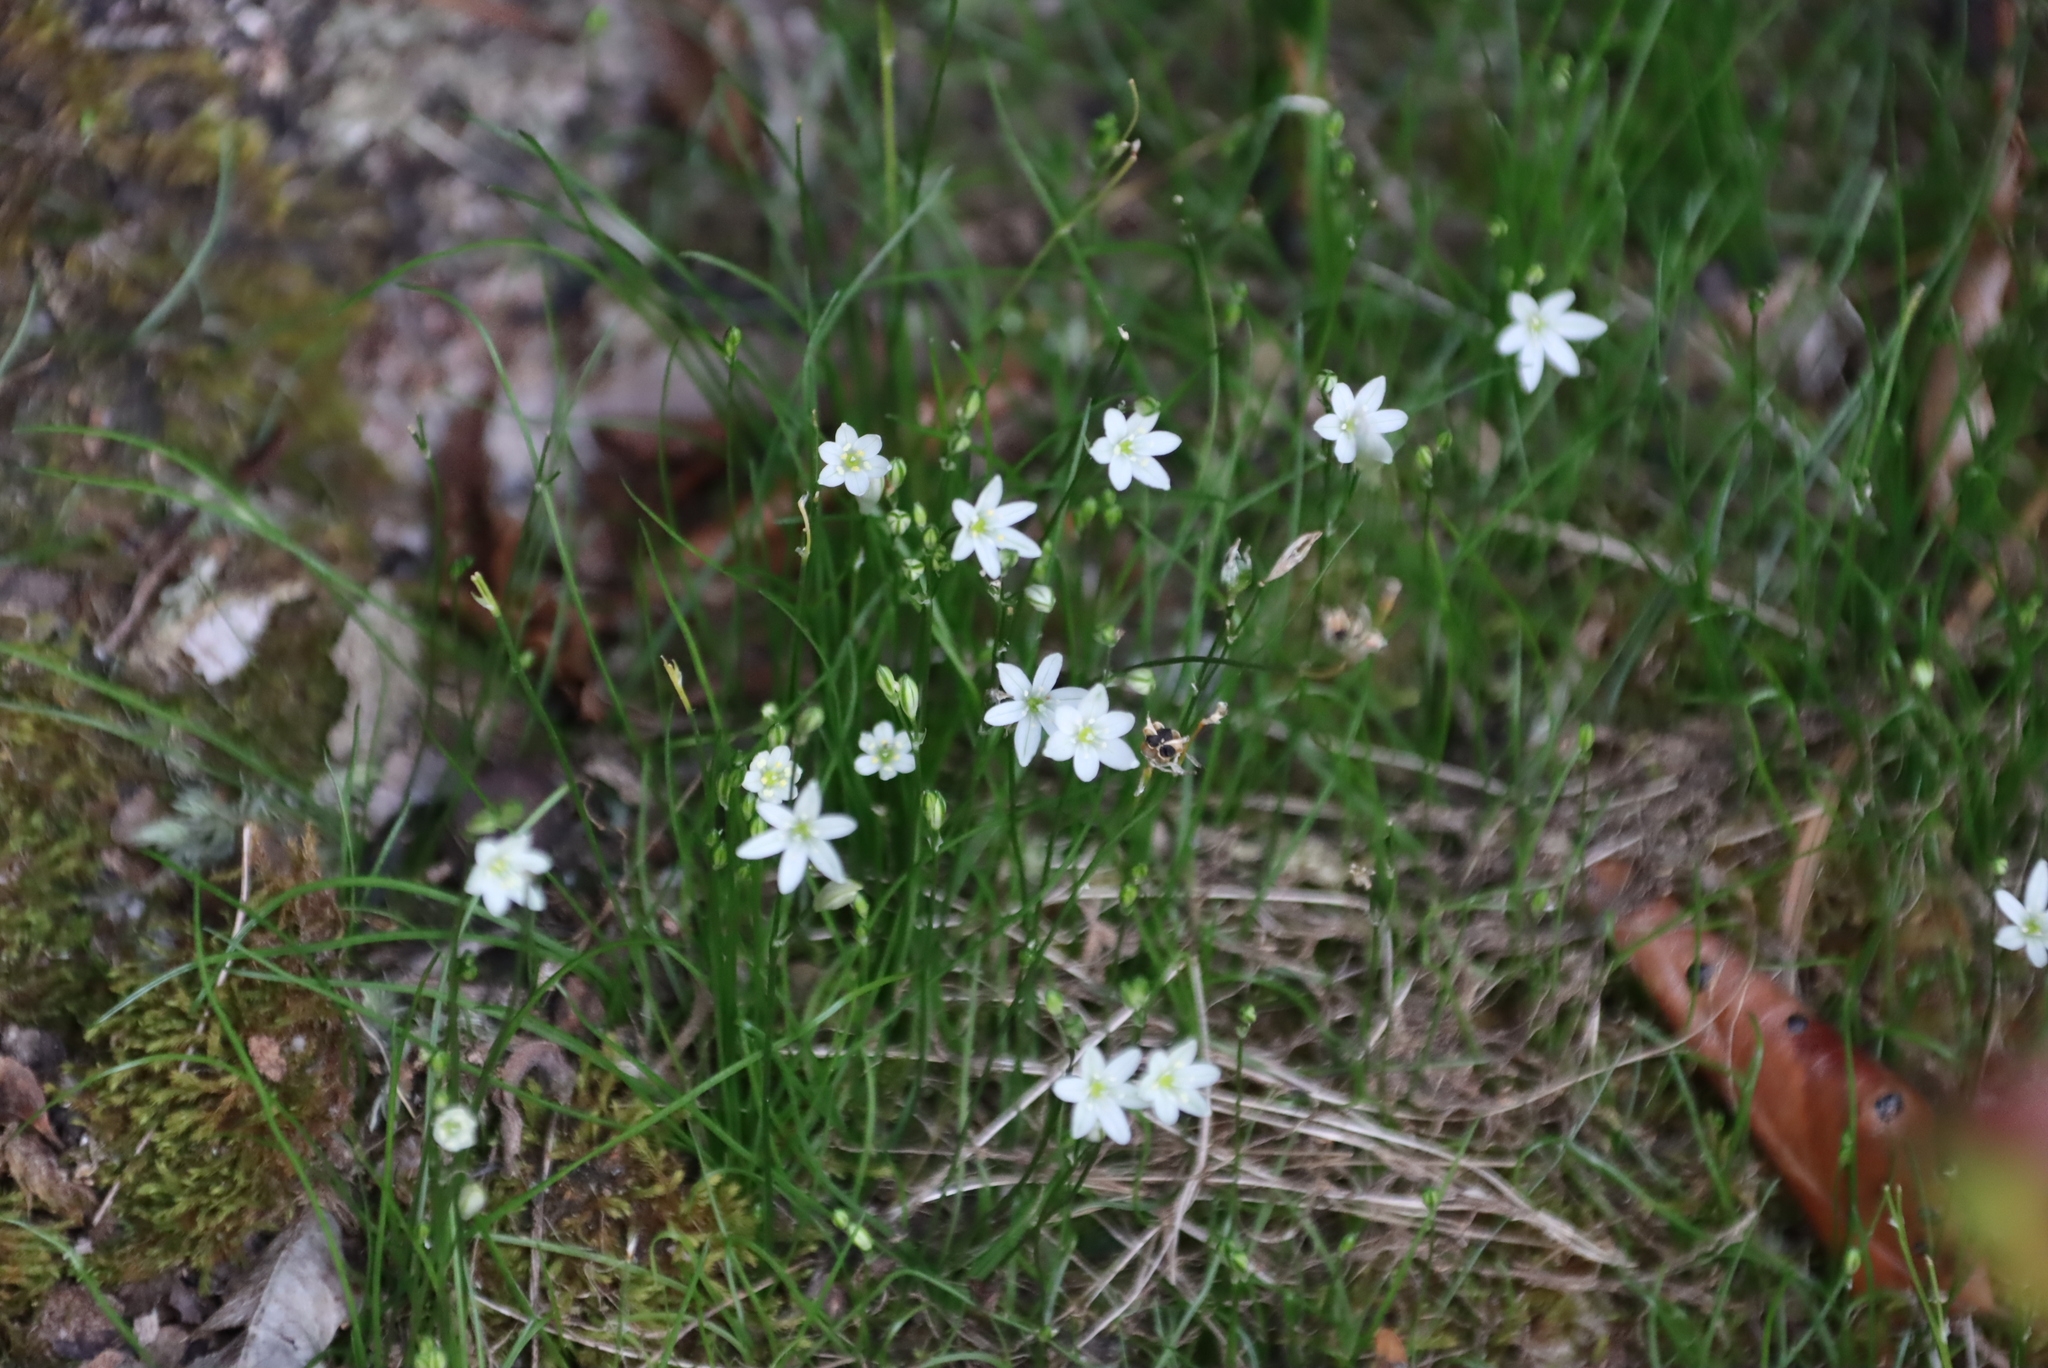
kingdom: Plantae
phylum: Tracheophyta
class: Liliopsida
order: Asparagales
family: Asparagaceae
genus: Ornithogalum
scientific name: Ornithogalum annae-ameliae
